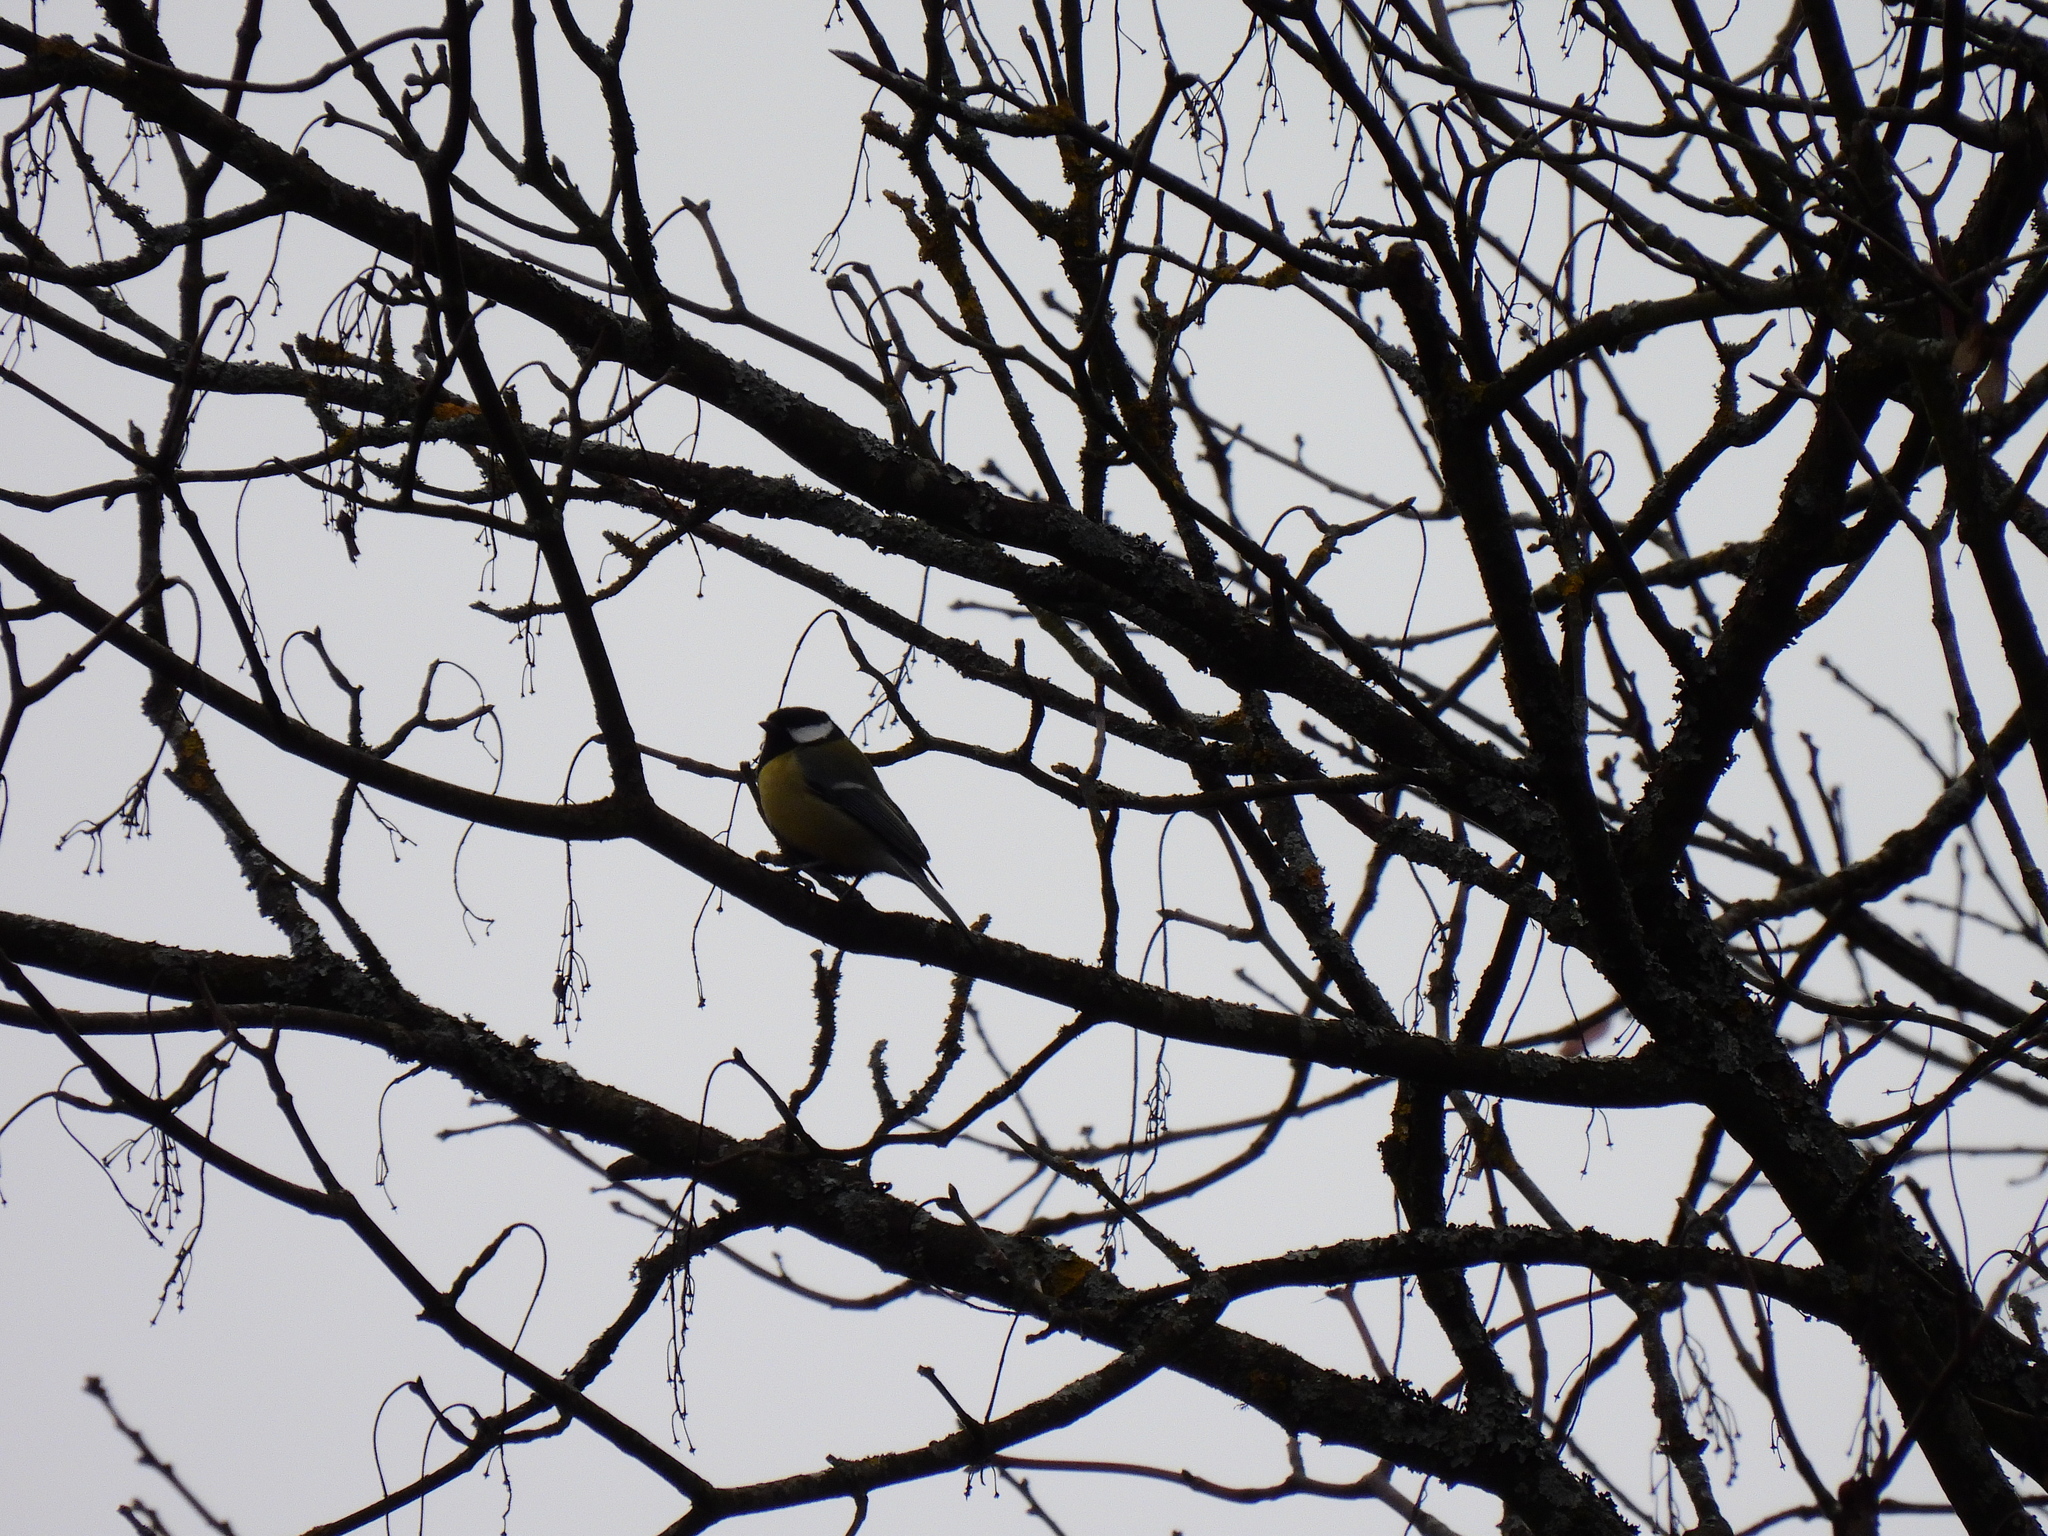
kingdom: Animalia
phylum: Chordata
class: Aves
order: Passeriformes
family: Paridae
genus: Parus
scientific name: Parus major
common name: Great tit
